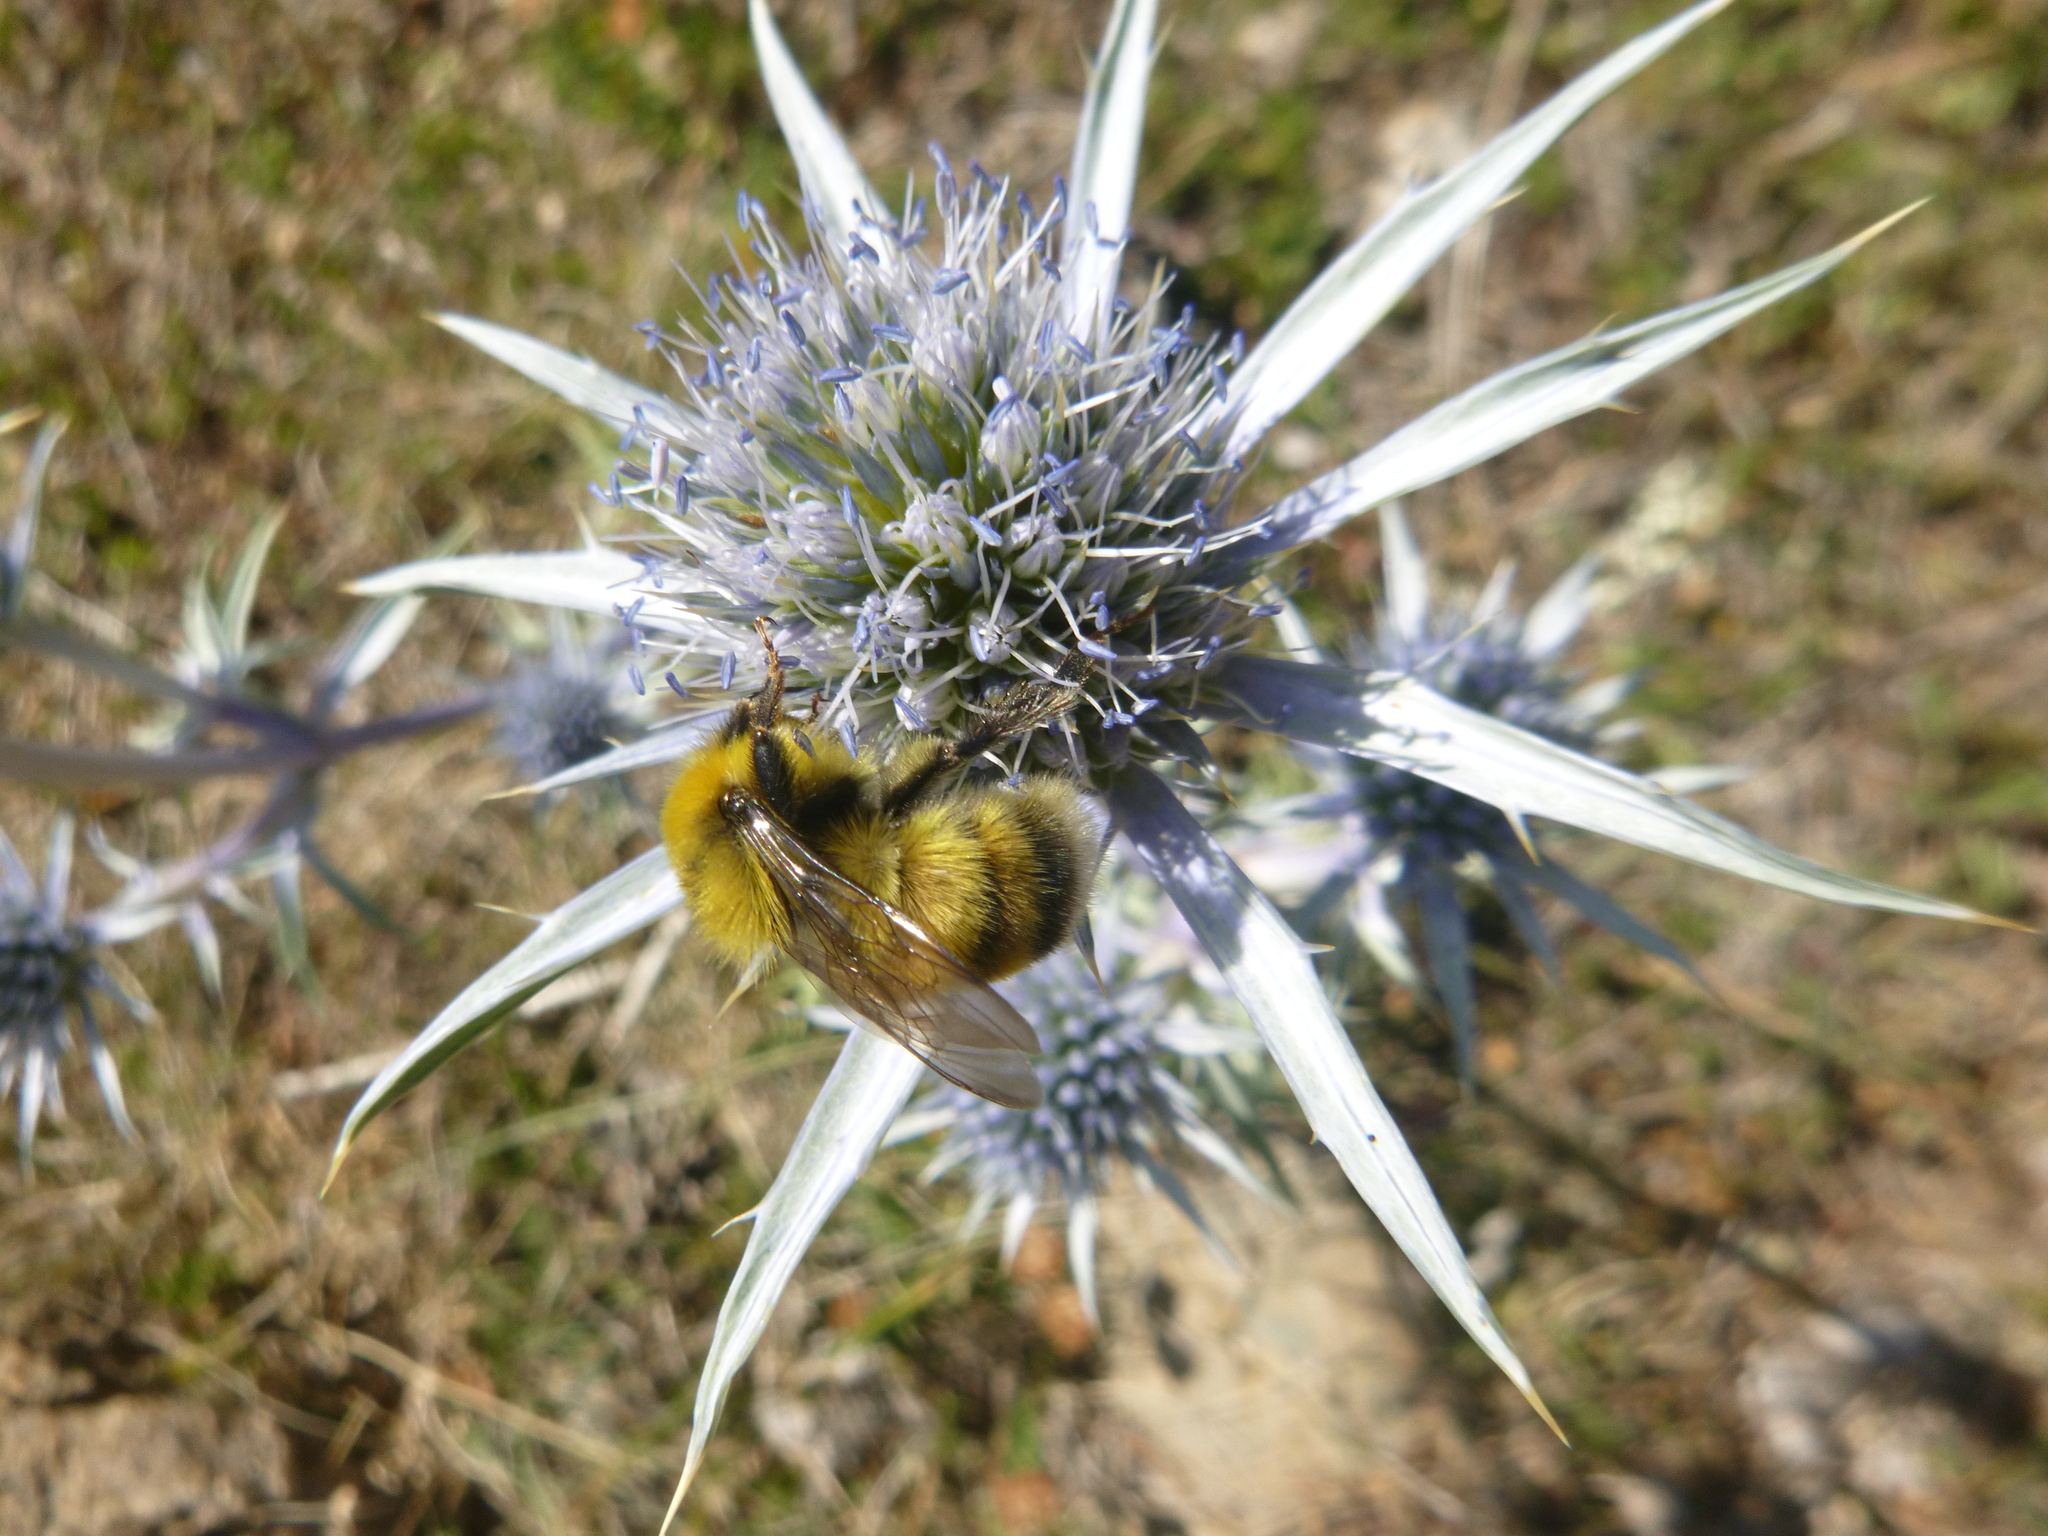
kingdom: Animalia
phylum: Arthropoda
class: Insecta
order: Hymenoptera
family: Apidae
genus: Bombus
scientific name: Bombus lucorum
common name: White-tailed bumblebee
